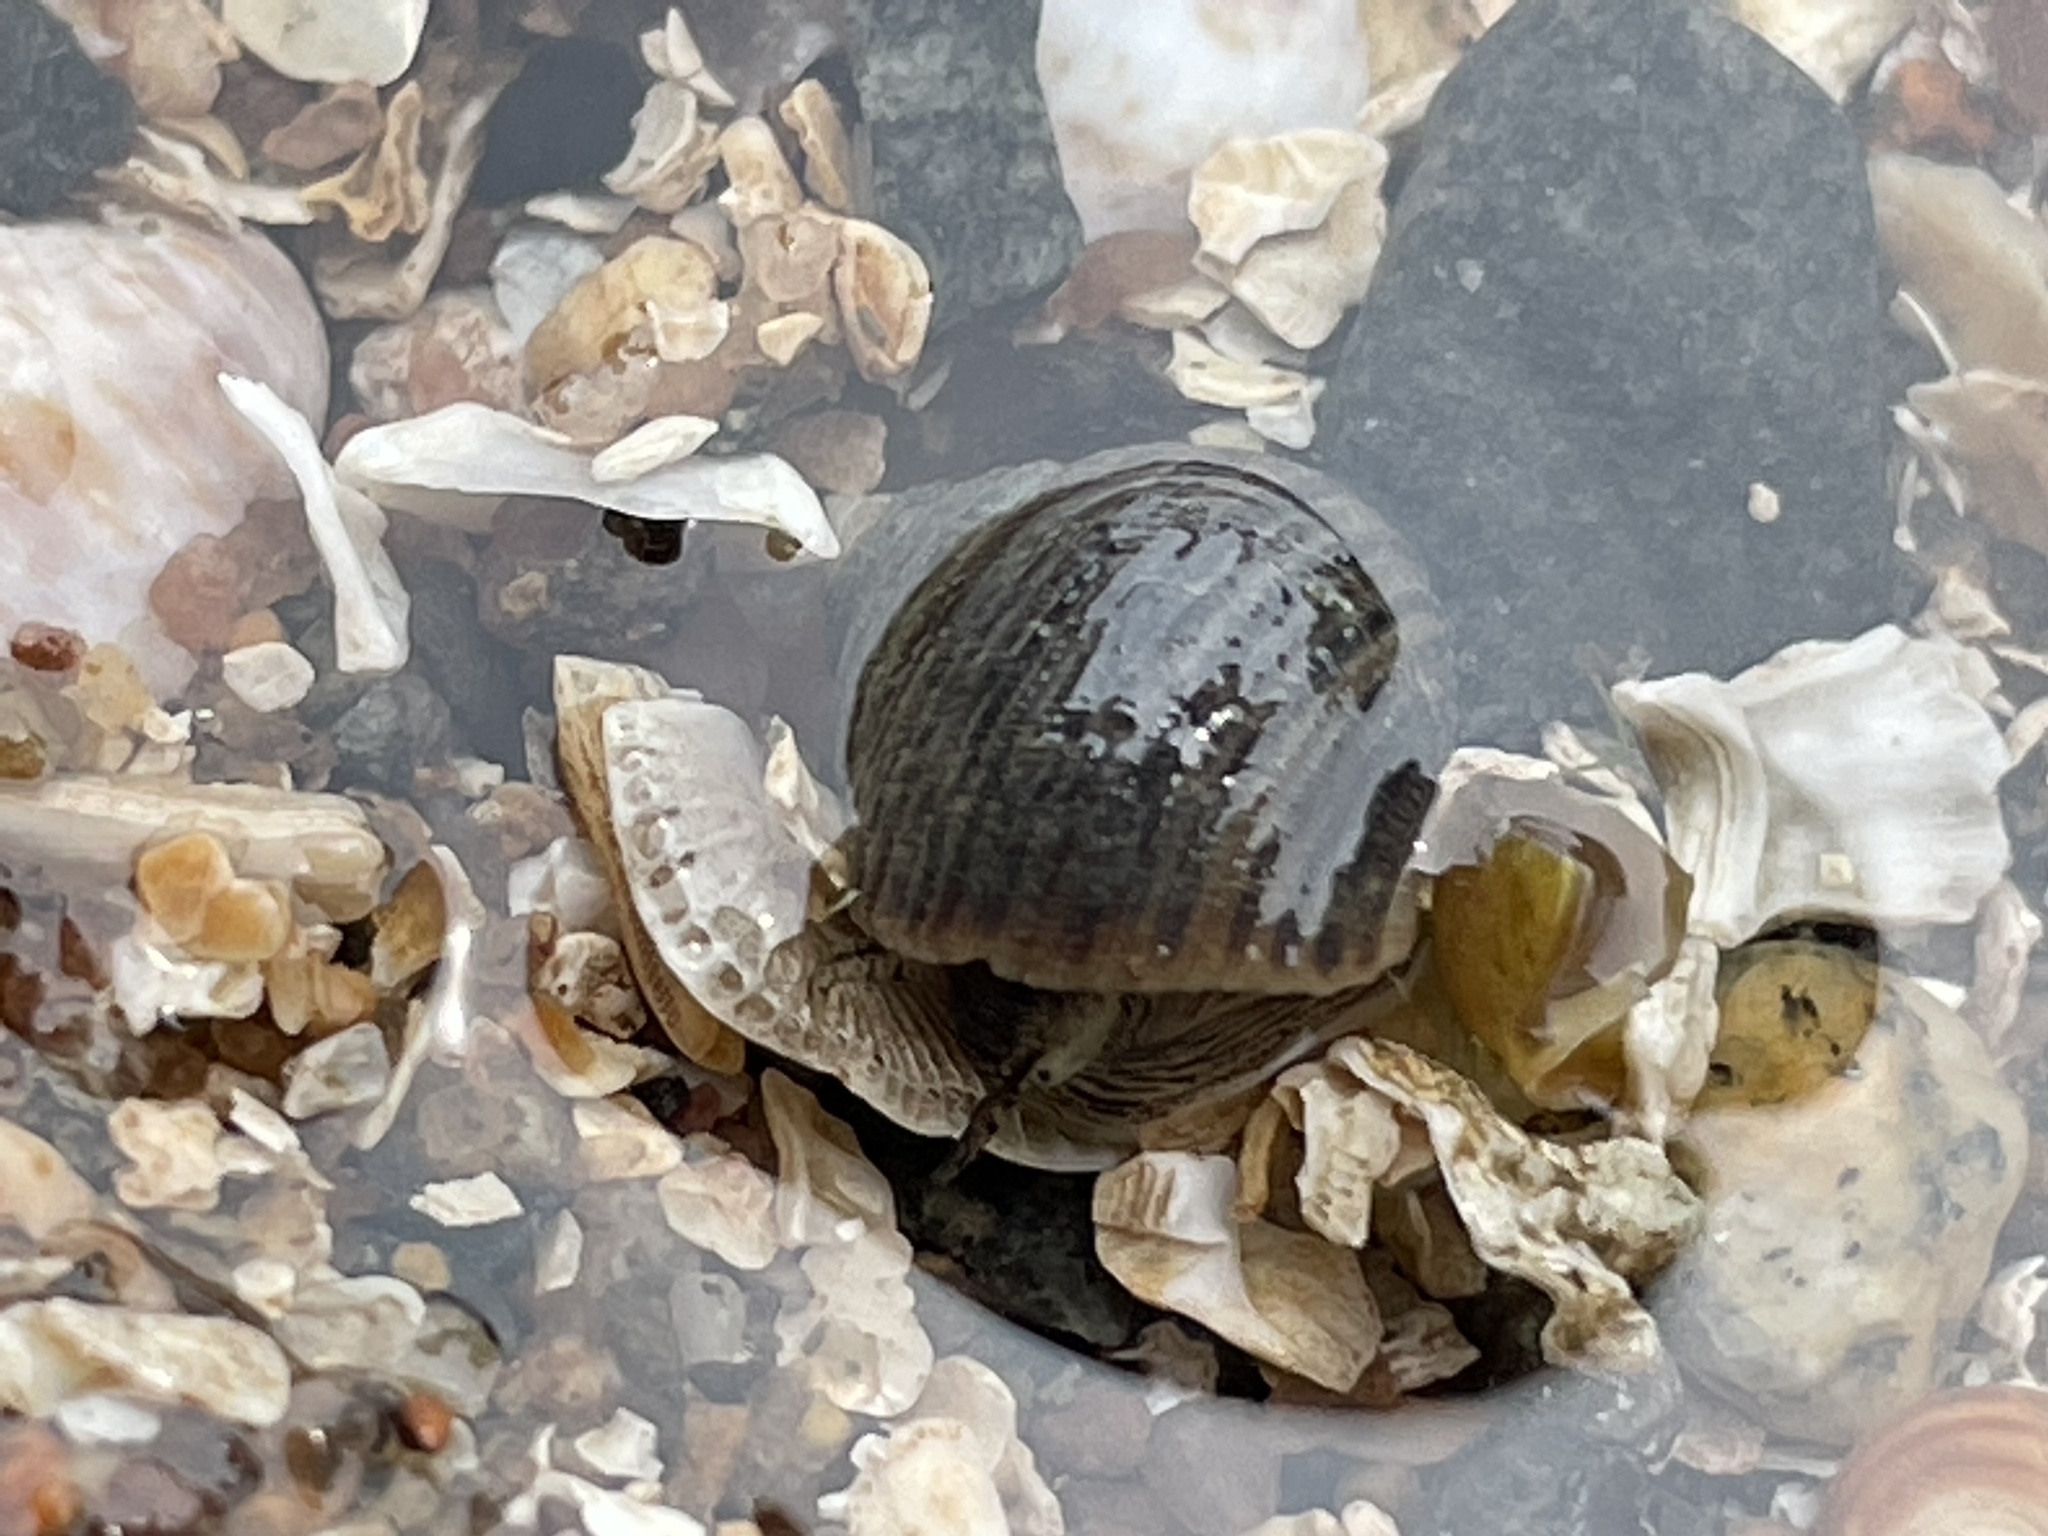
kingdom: Animalia
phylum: Mollusca
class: Gastropoda
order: Littorinimorpha
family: Littorinidae
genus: Littorina
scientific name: Littorina littorea
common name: Common periwinkle
